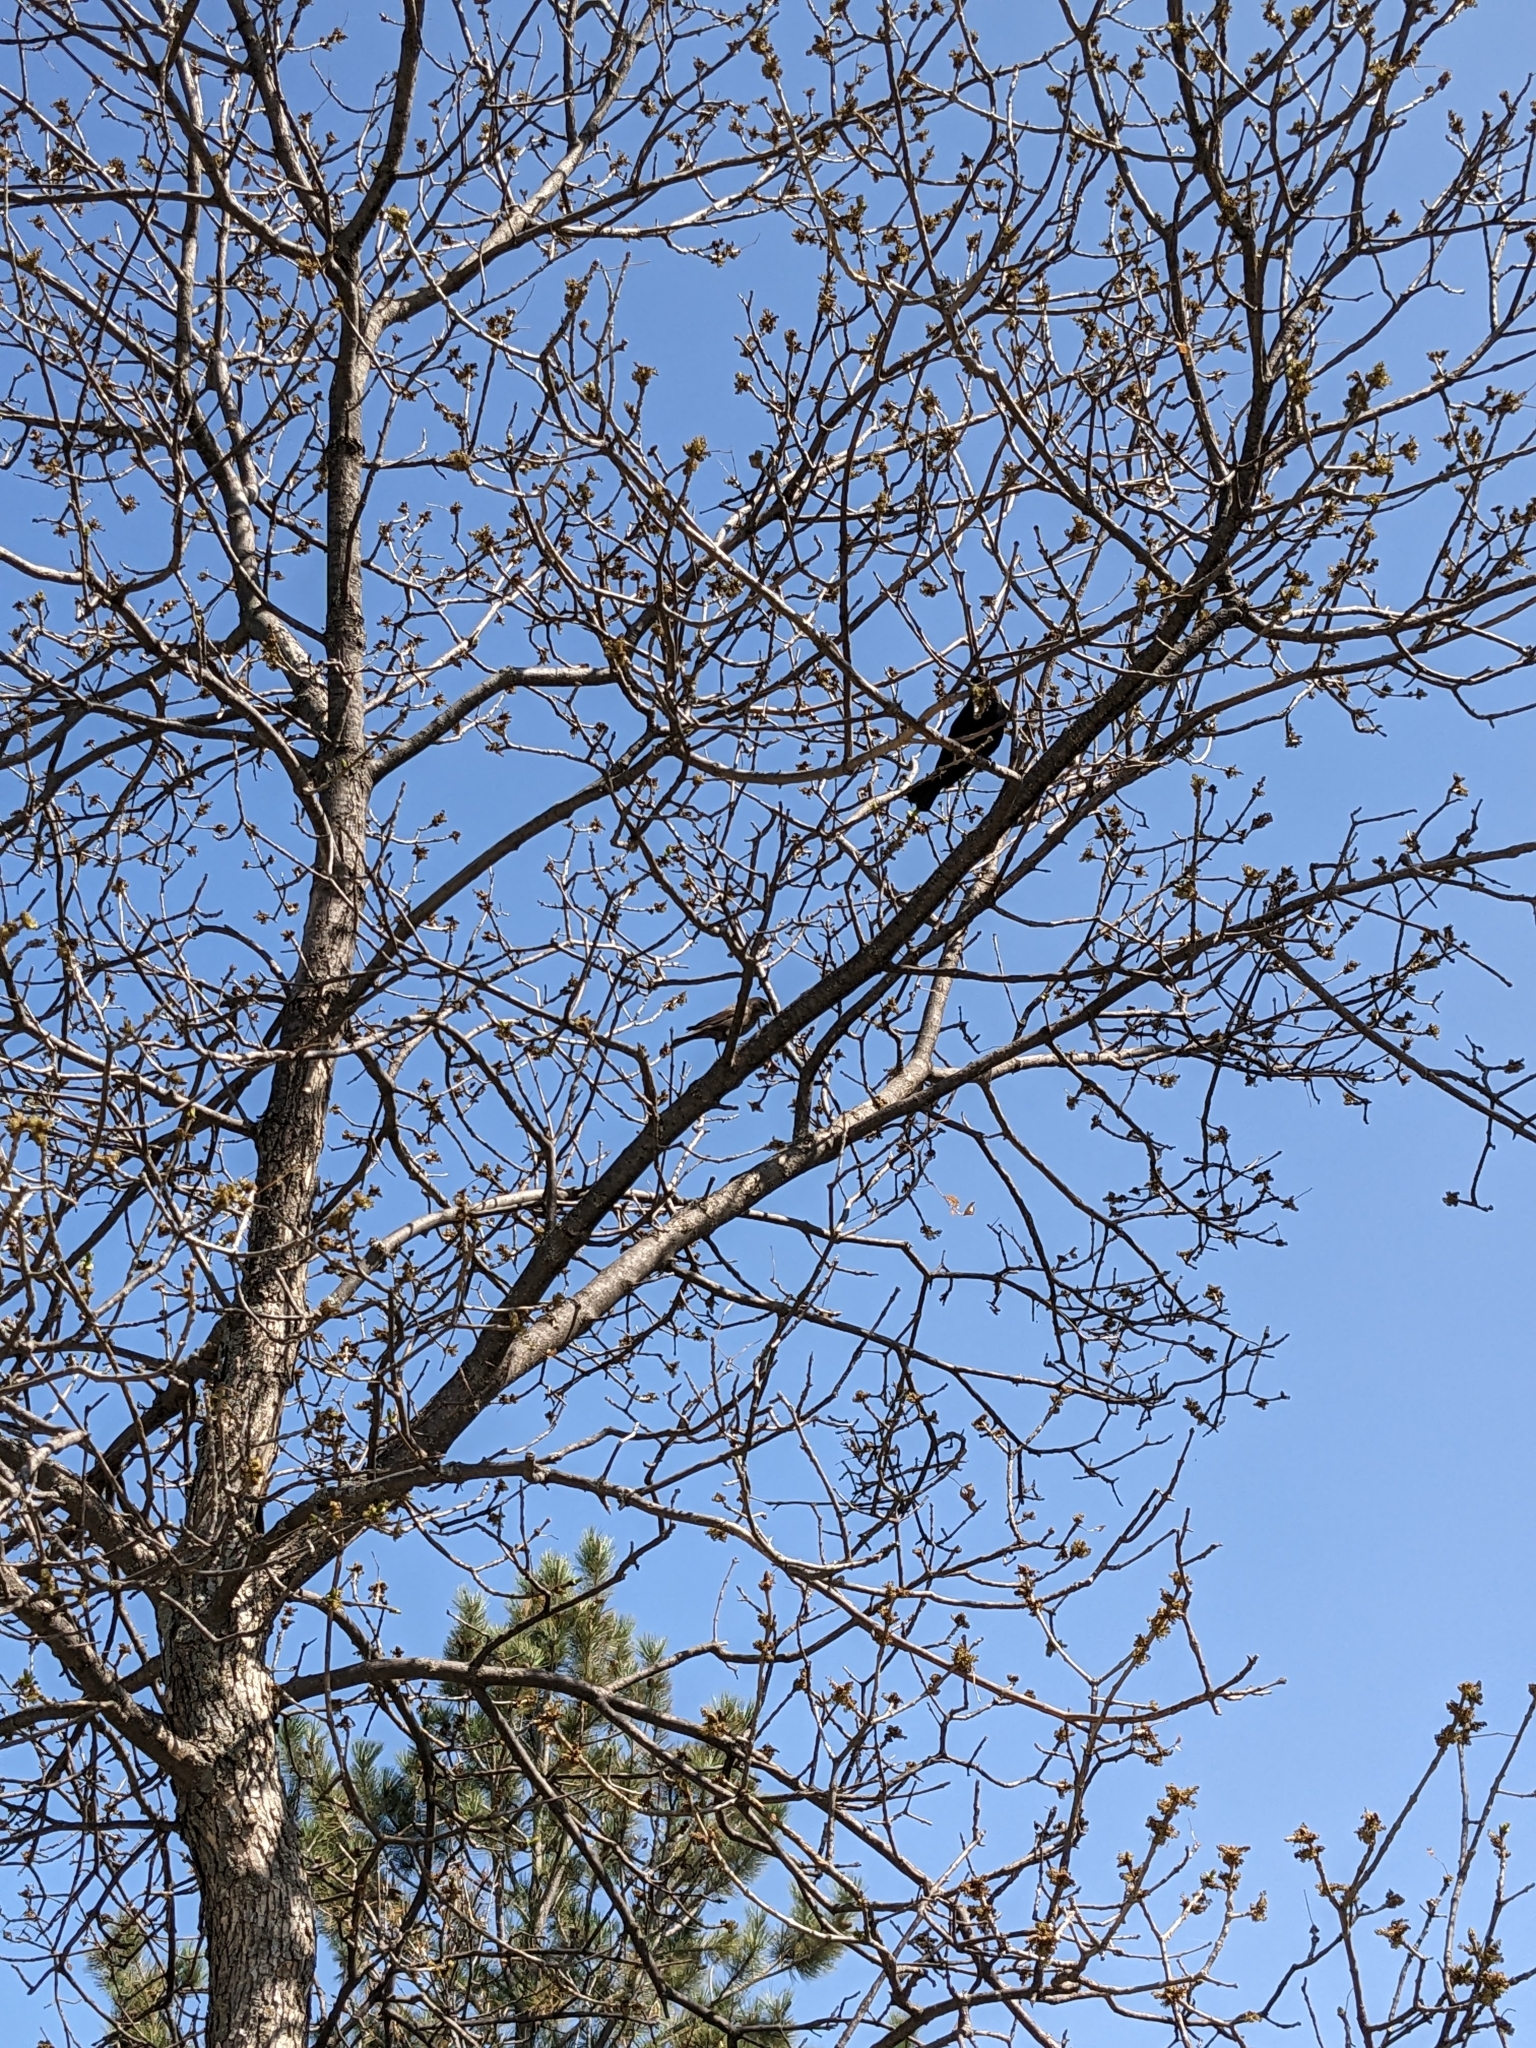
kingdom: Animalia
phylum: Chordata
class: Aves
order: Passeriformes
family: Icteridae
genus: Molothrus
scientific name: Molothrus ater
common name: Brown-headed cowbird
